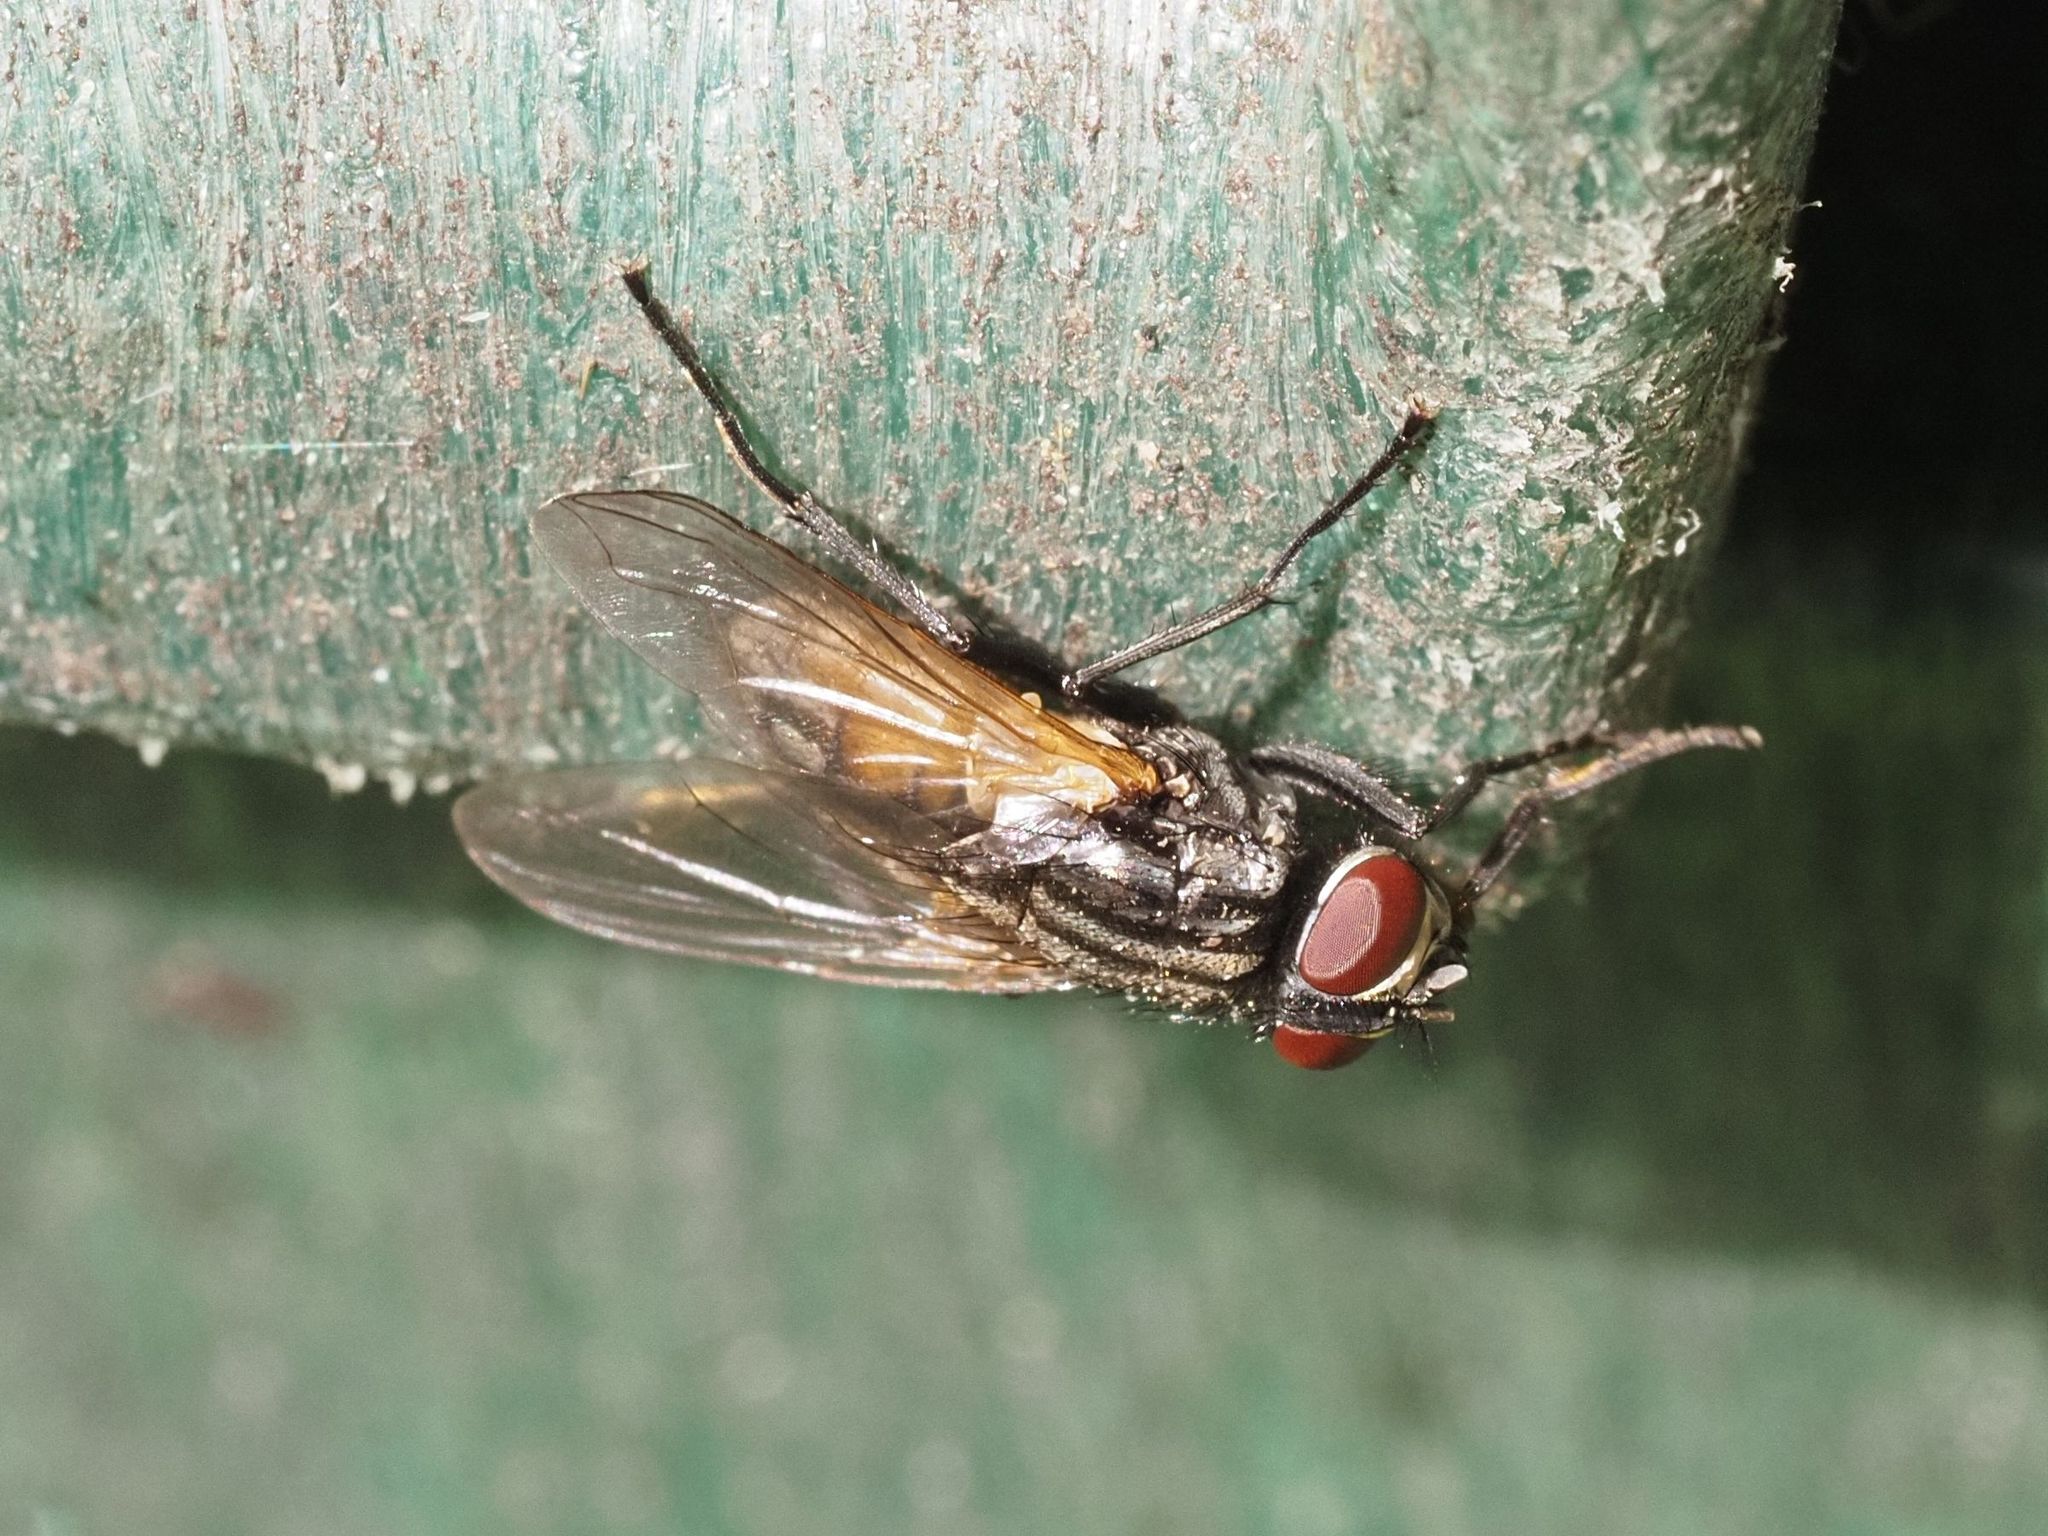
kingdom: Animalia
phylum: Arthropoda
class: Insecta
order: Diptera
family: Muscidae
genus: Musca
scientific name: Musca domestica
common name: House fly
